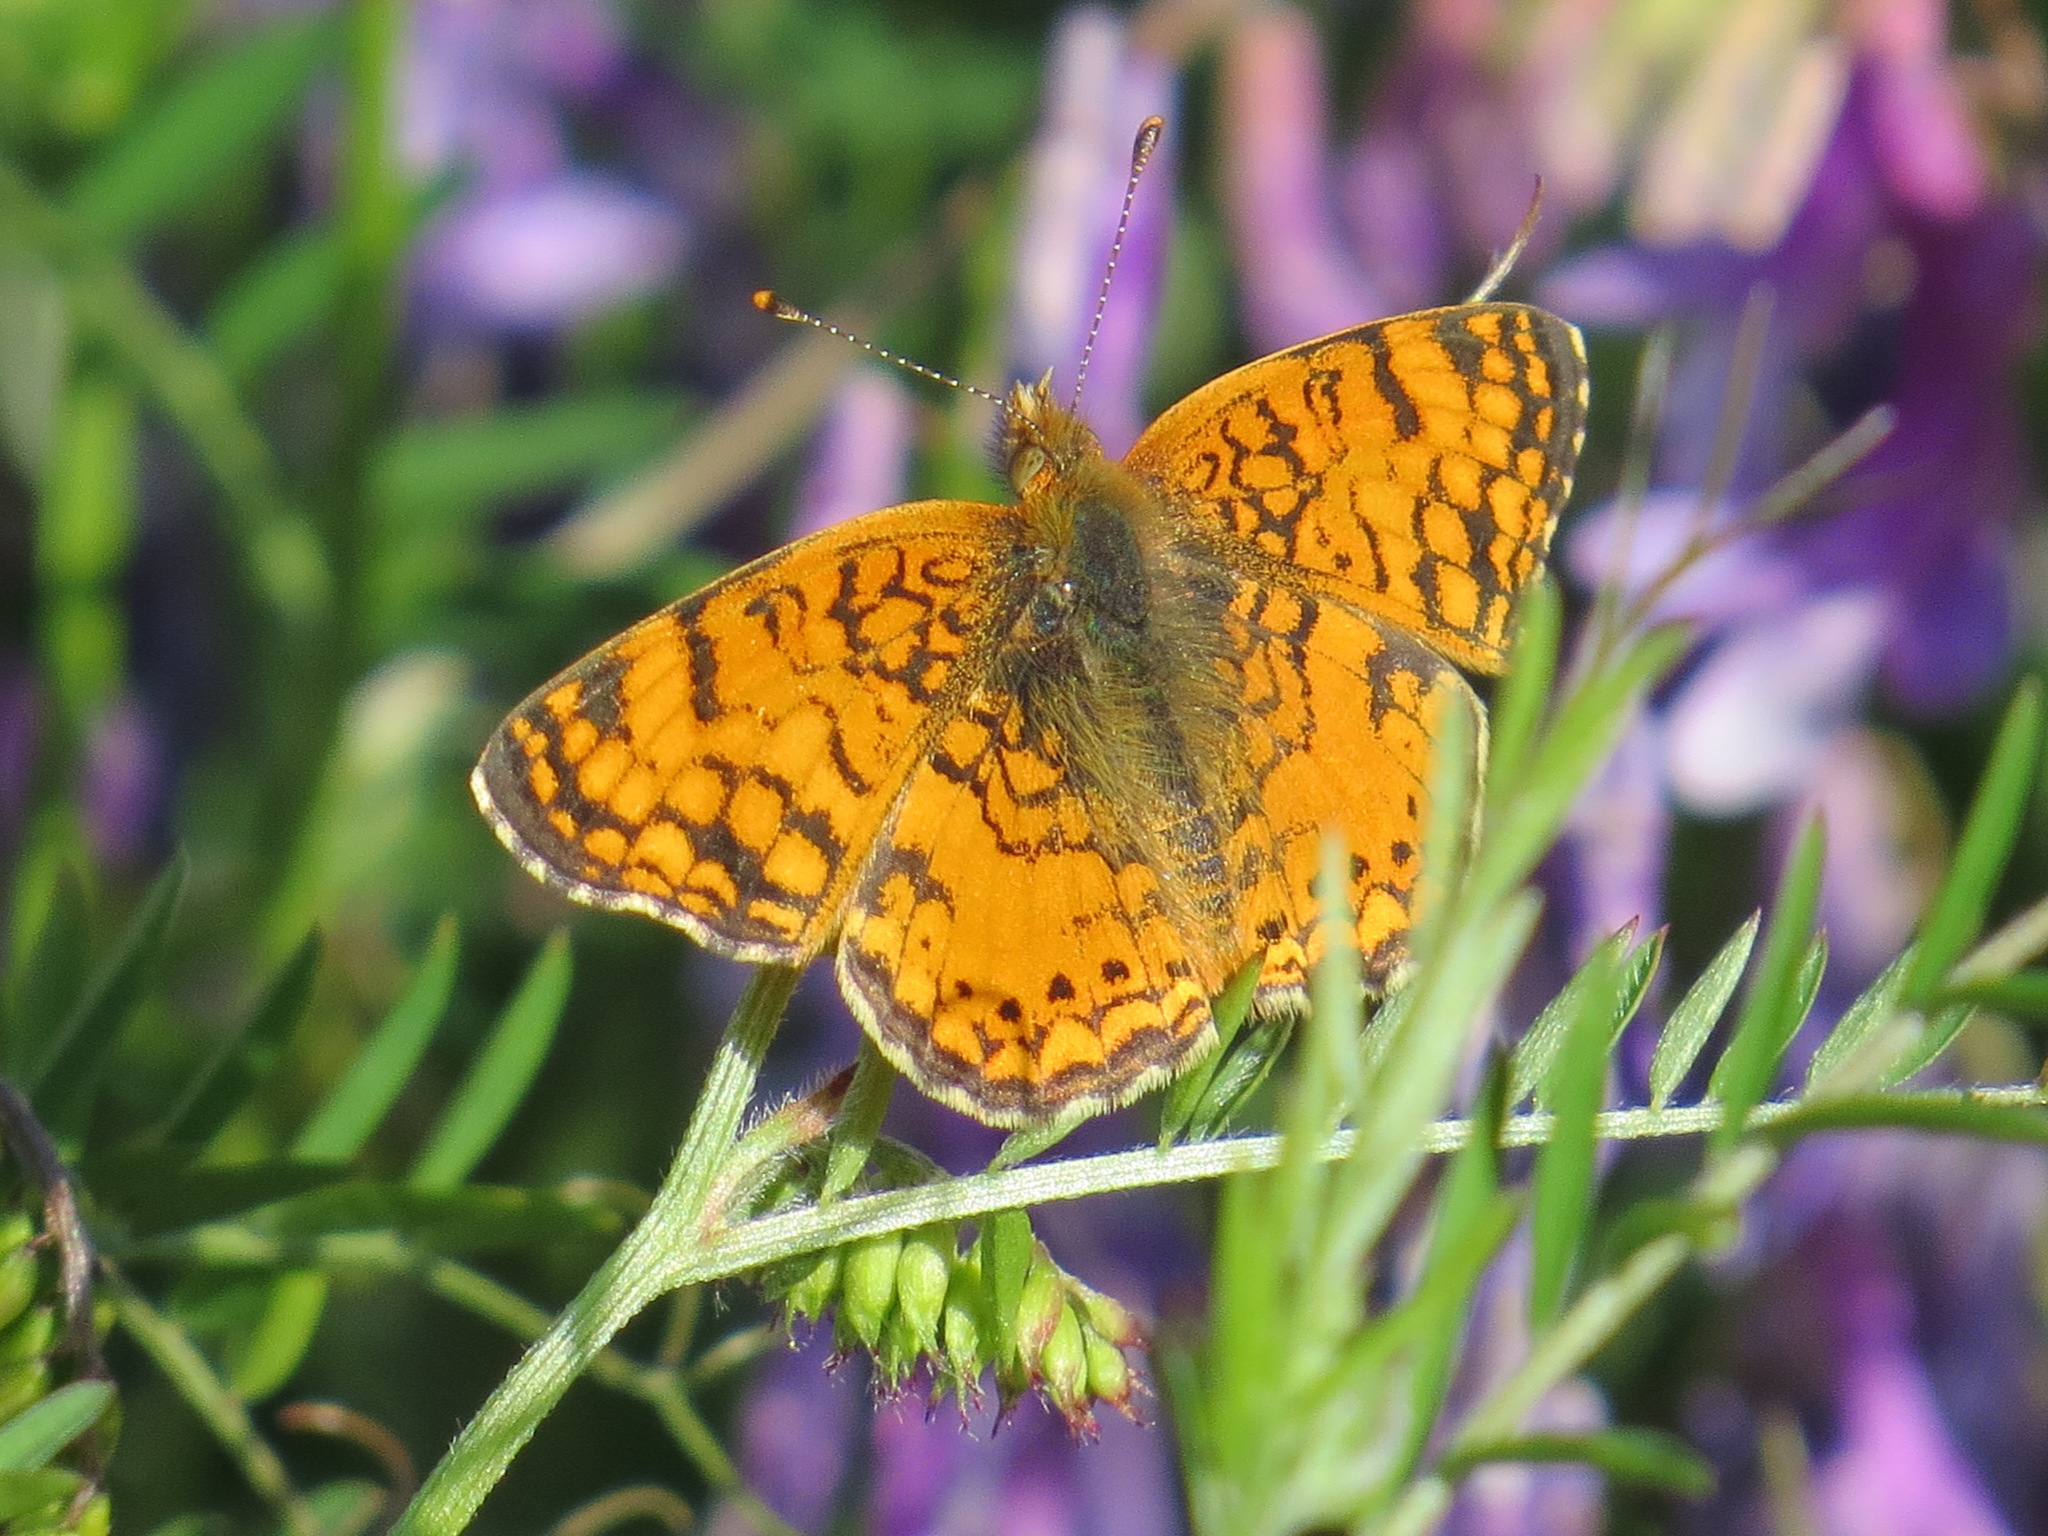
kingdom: Animalia
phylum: Arthropoda
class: Insecta
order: Lepidoptera
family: Nymphalidae
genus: Eresia
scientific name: Eresia aveyrona
